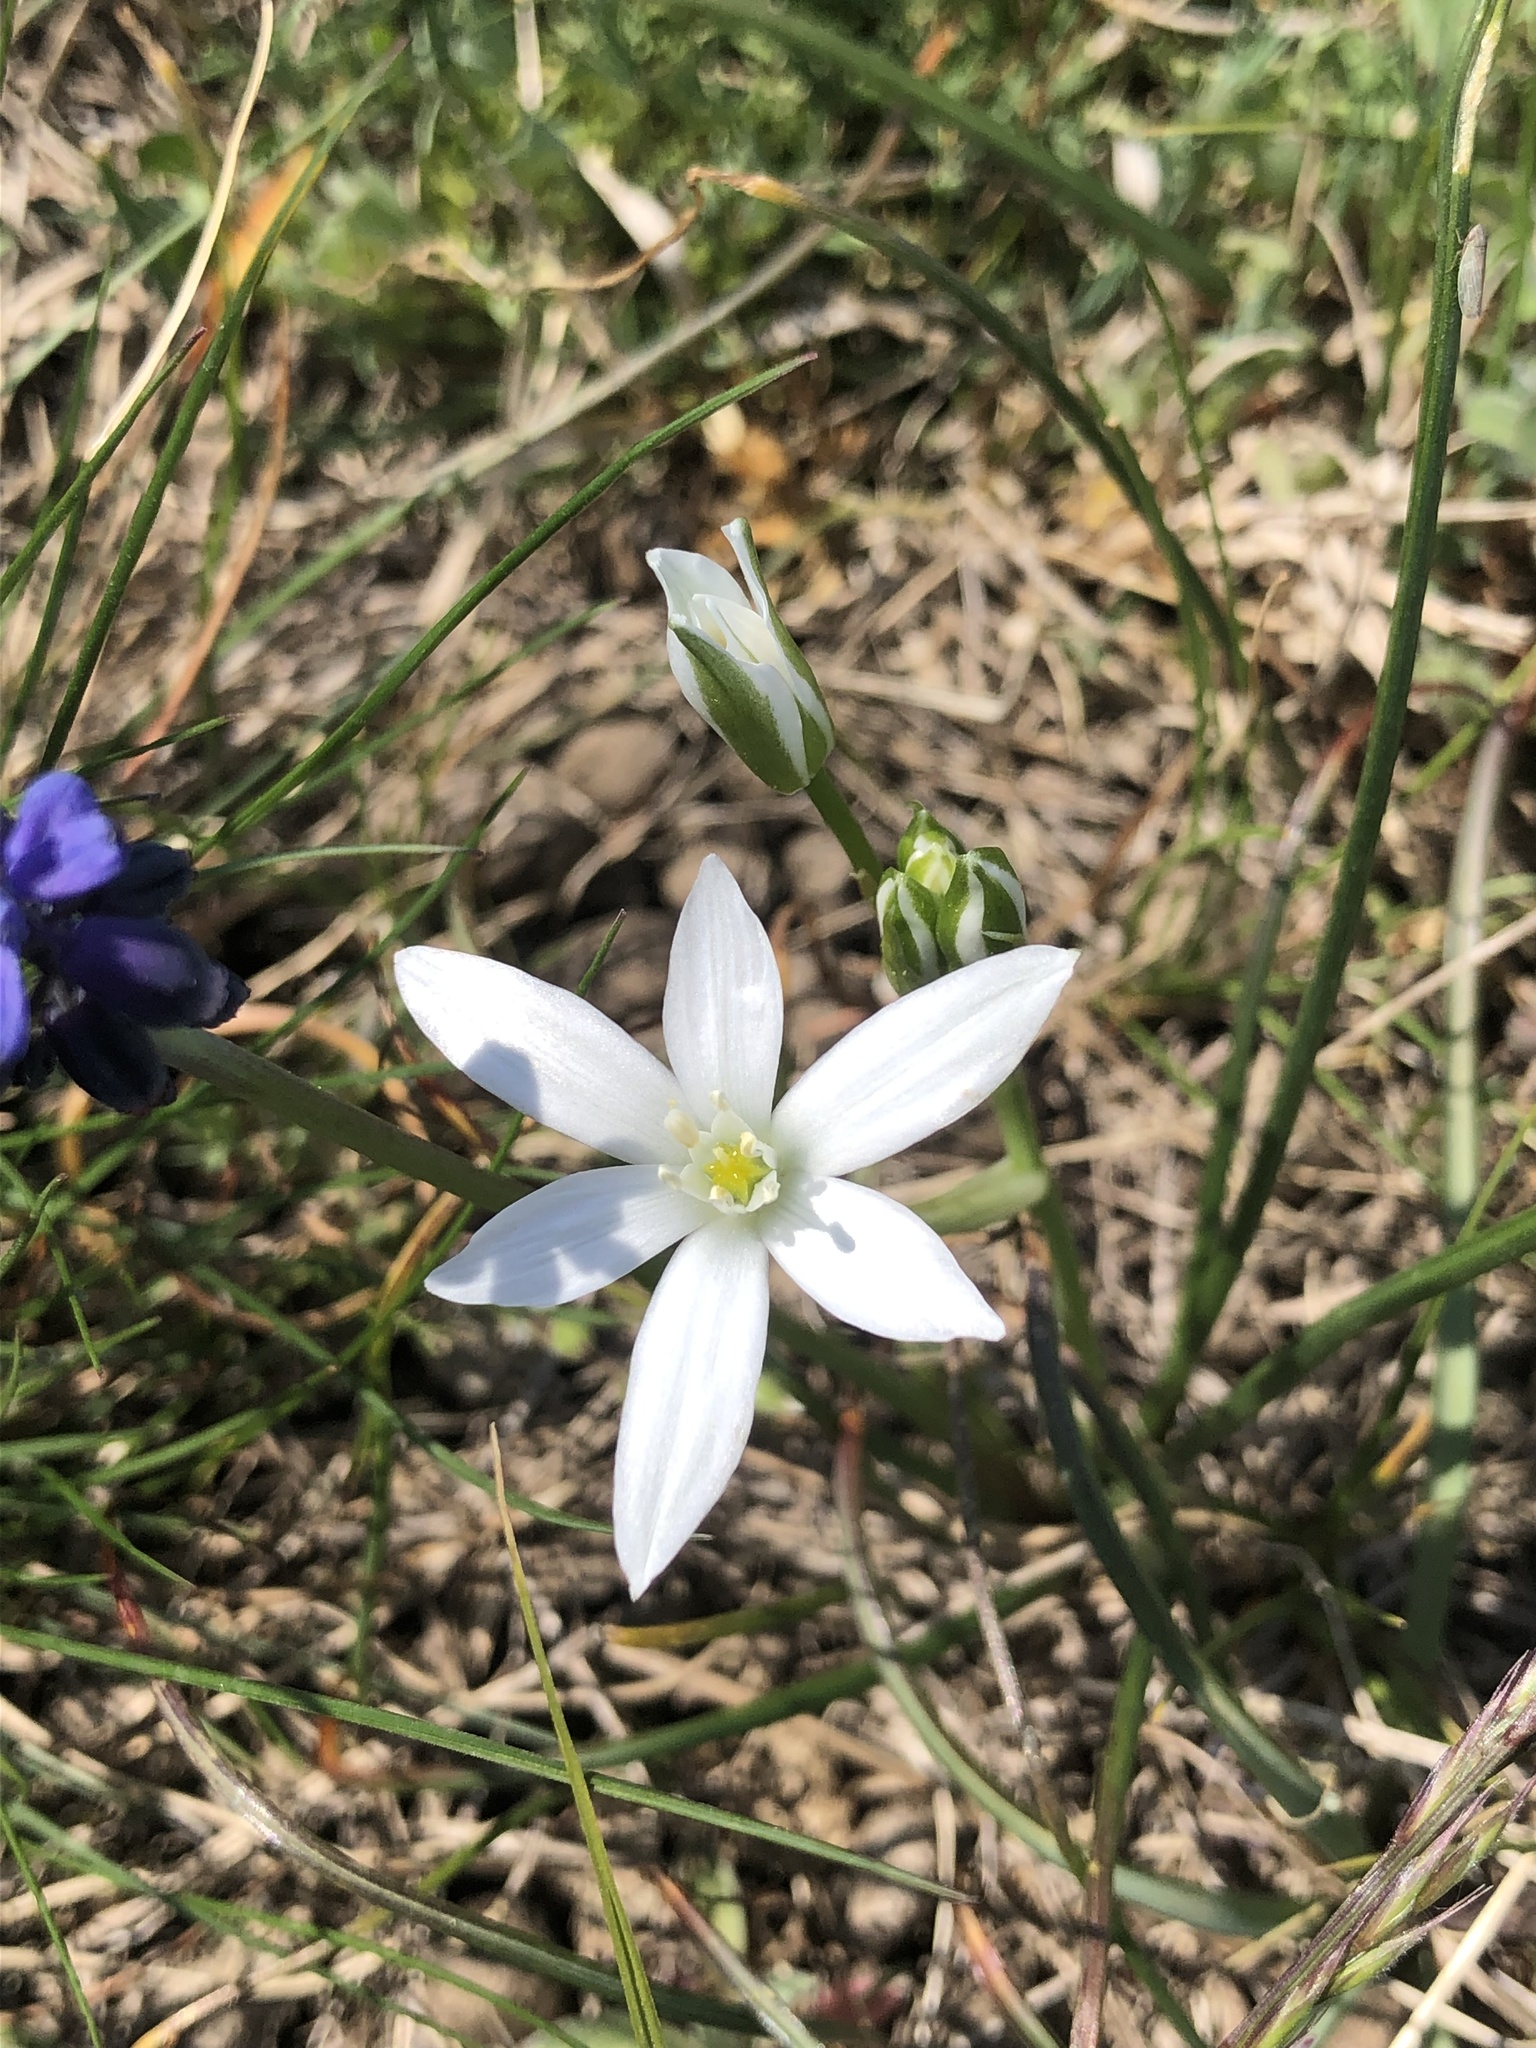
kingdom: Plantae
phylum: Tracheophyta
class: Liliopsida
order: Asparagales
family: Asparagaceae
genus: Ornithogalum
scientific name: Ornithogalum orthophyllum
